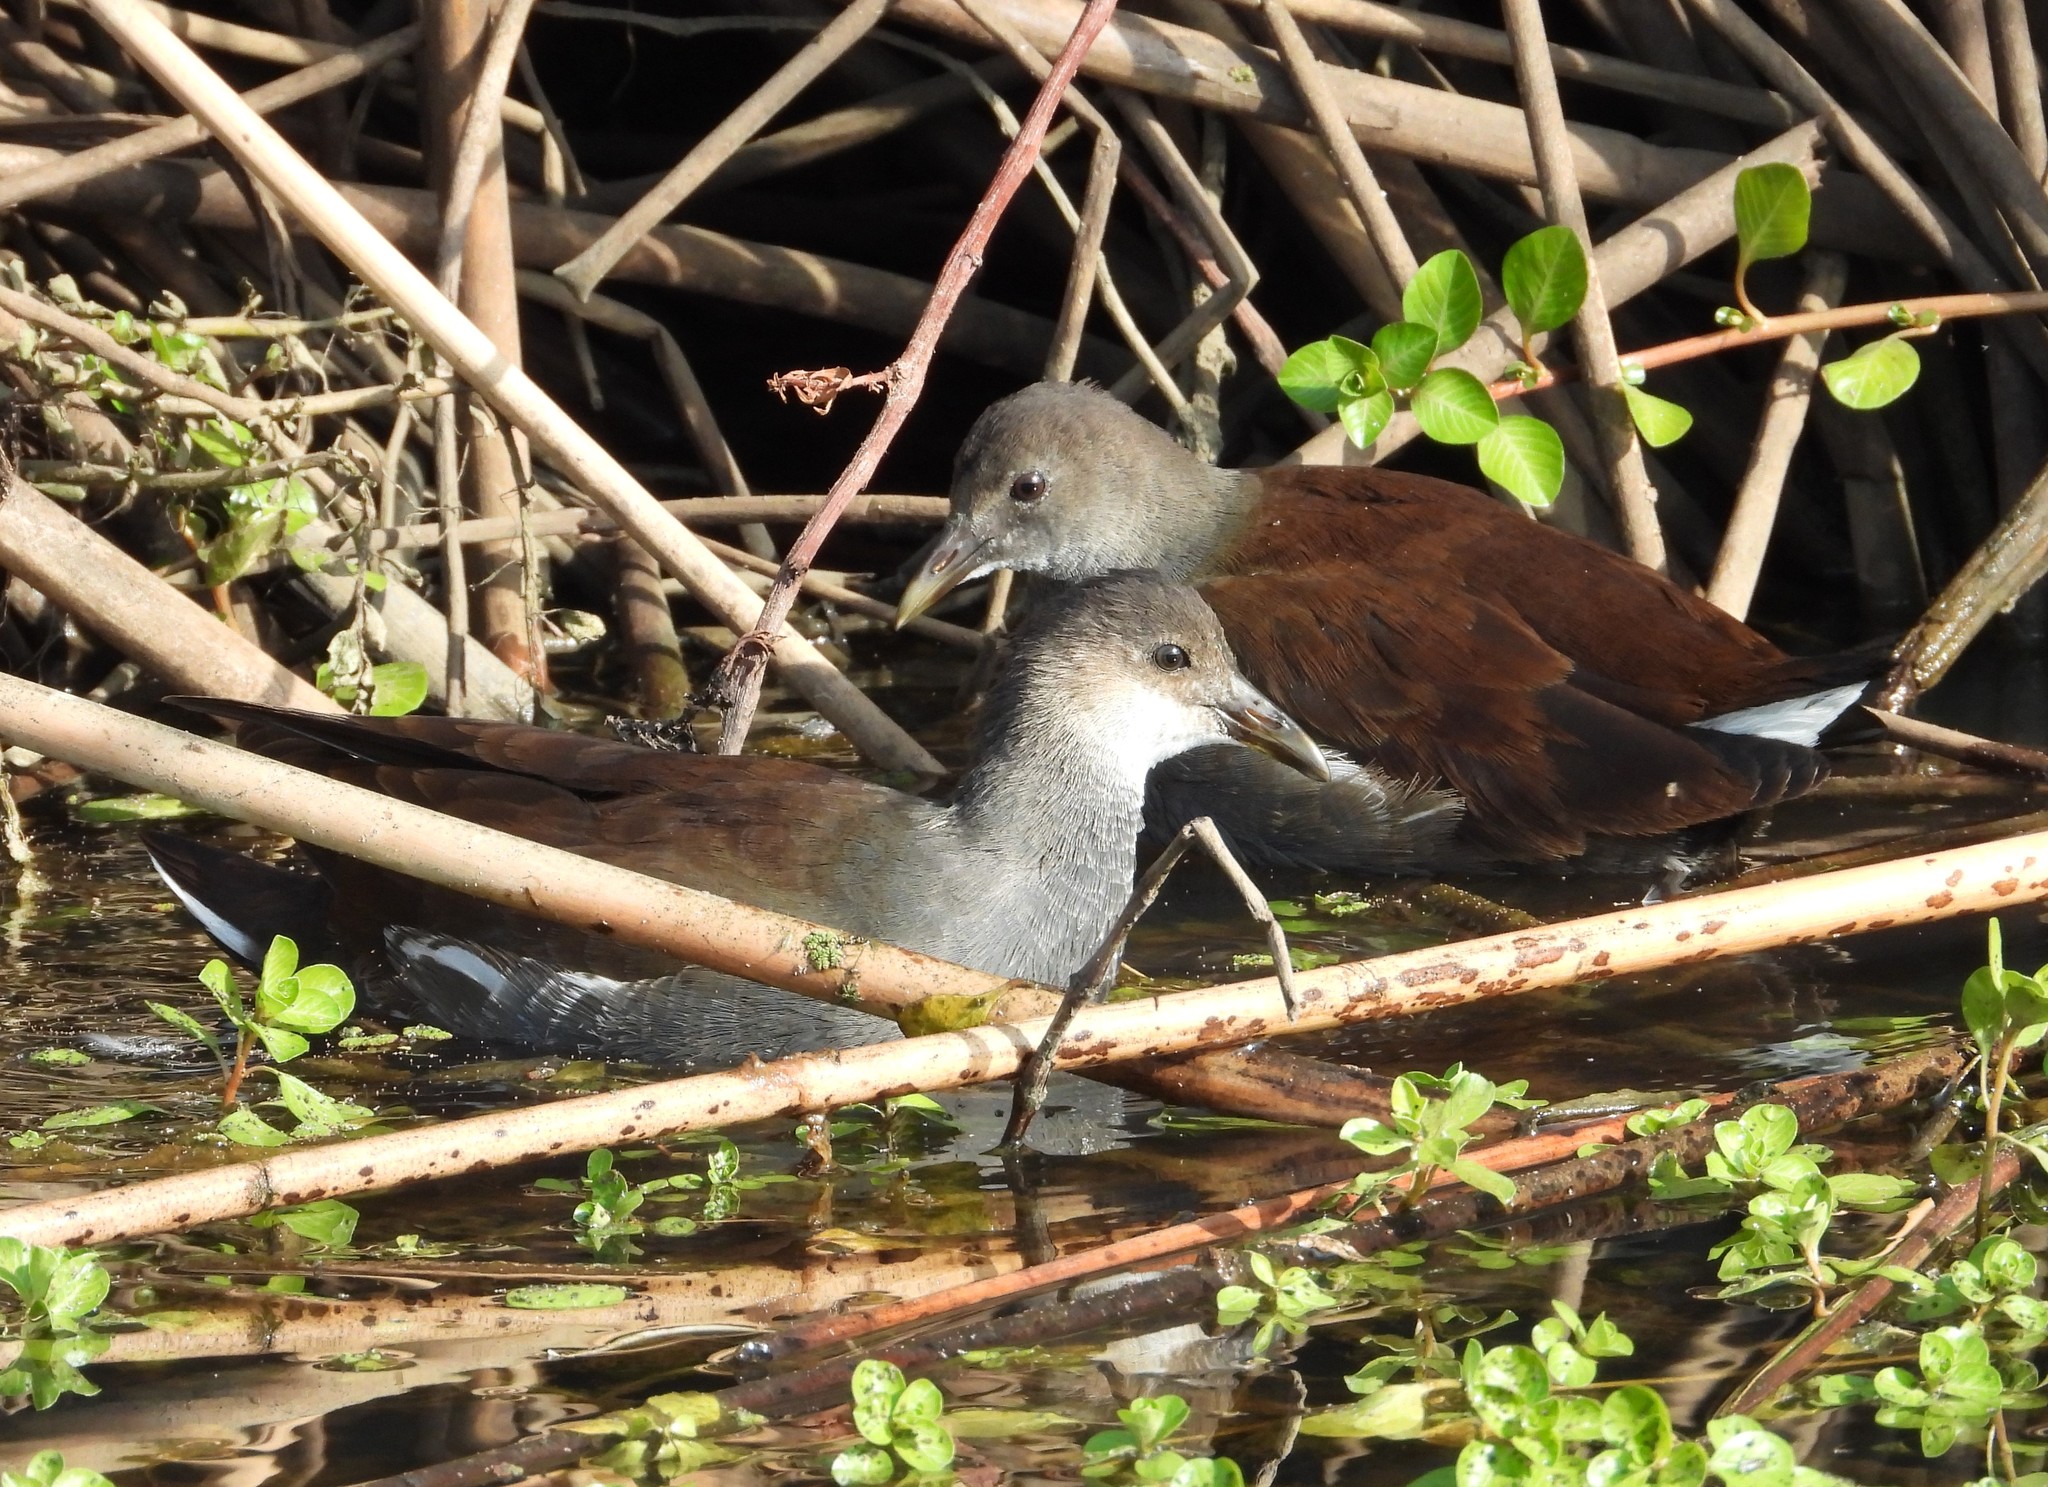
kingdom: Animalia
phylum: Chordata
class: Aves
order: Gruiformes
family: Rallidae
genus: Gallinula
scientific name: Gallinula chloropus
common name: Common moorhen
